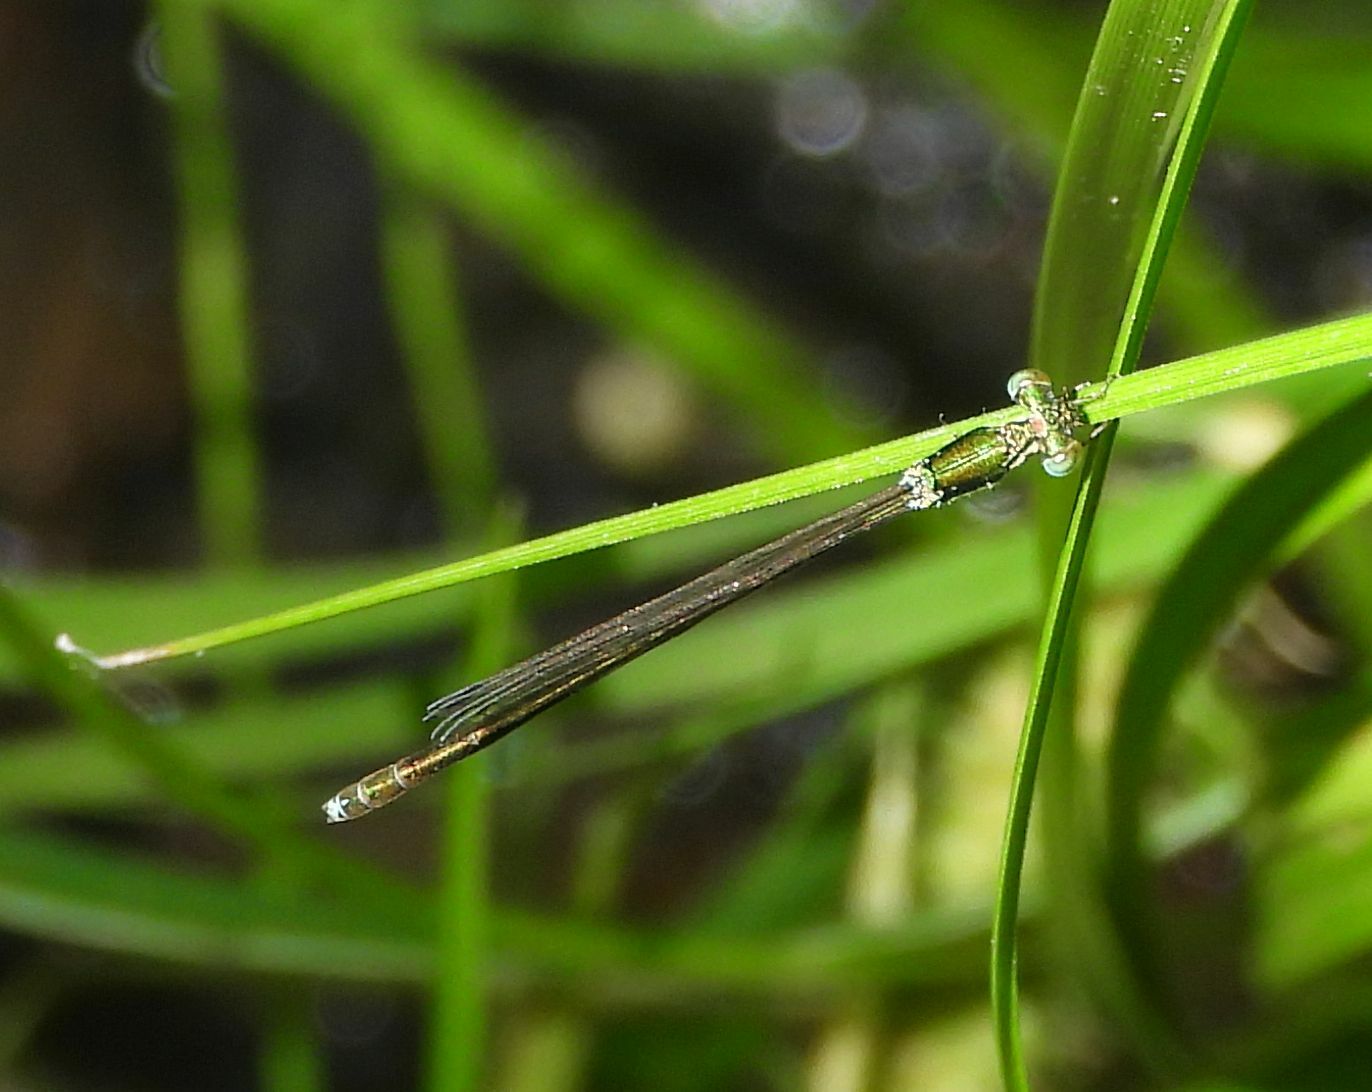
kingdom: Animalia
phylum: Arthropoda
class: Insecta
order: Odonata
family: Coenagrionidae
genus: Nehalennia
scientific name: Nehalennia irene
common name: Sedge sprite
